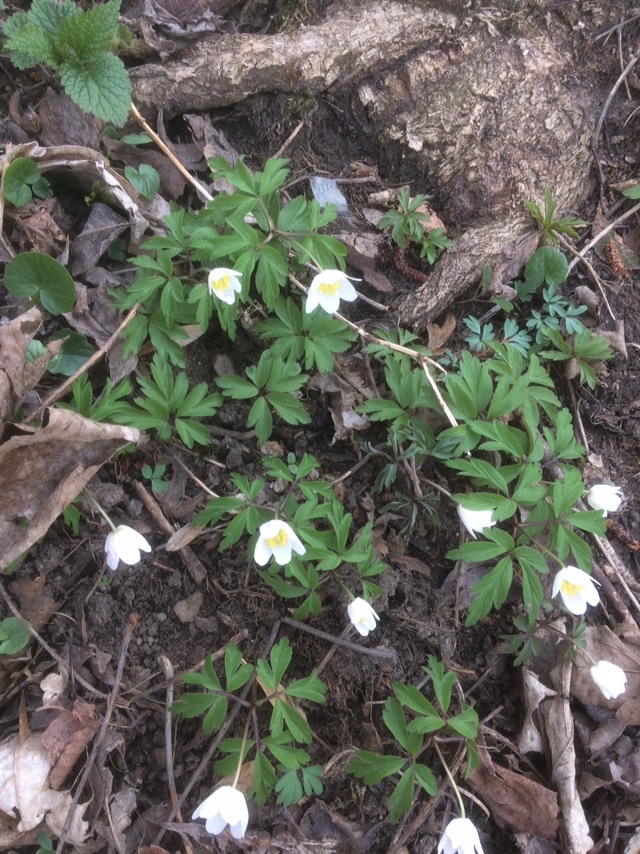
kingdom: Plantae
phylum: Tracheophyta
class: Magnoliopsida
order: Ranunculales
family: Ranunculaceae
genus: Anemone
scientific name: Anemone nemorosa
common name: Wood anemone
